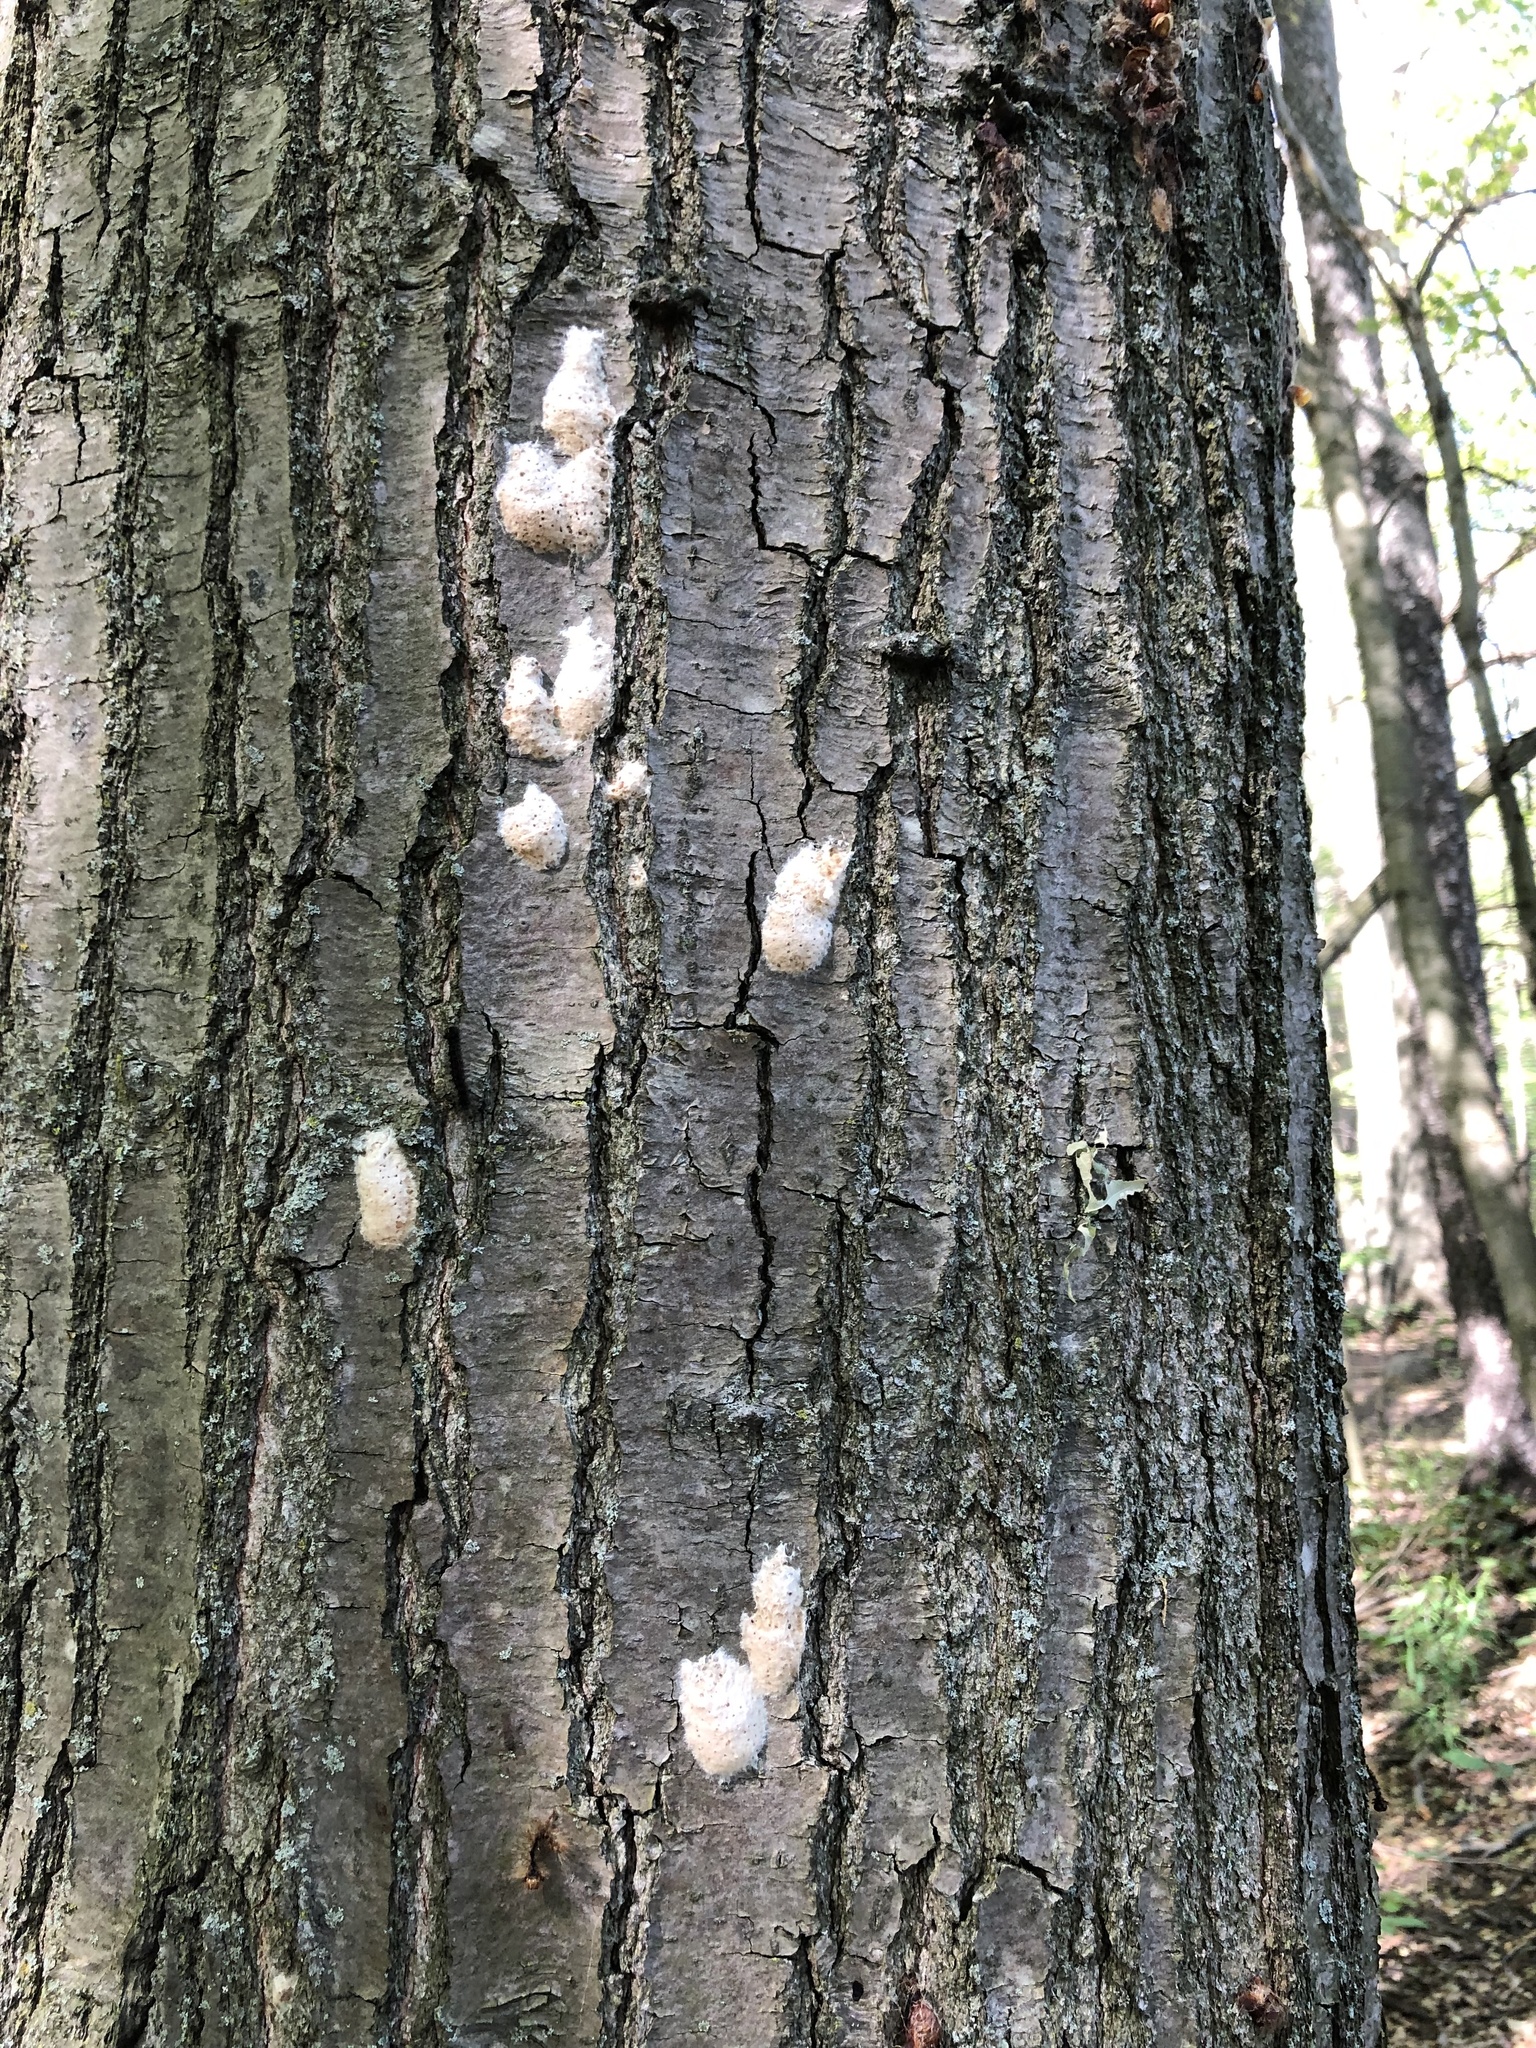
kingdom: Animalia
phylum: Arthropoda
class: Insecta
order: Lepidoptera
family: Erebidae
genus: Lymantria
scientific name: Lymantria dispar
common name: Gypsy moth
